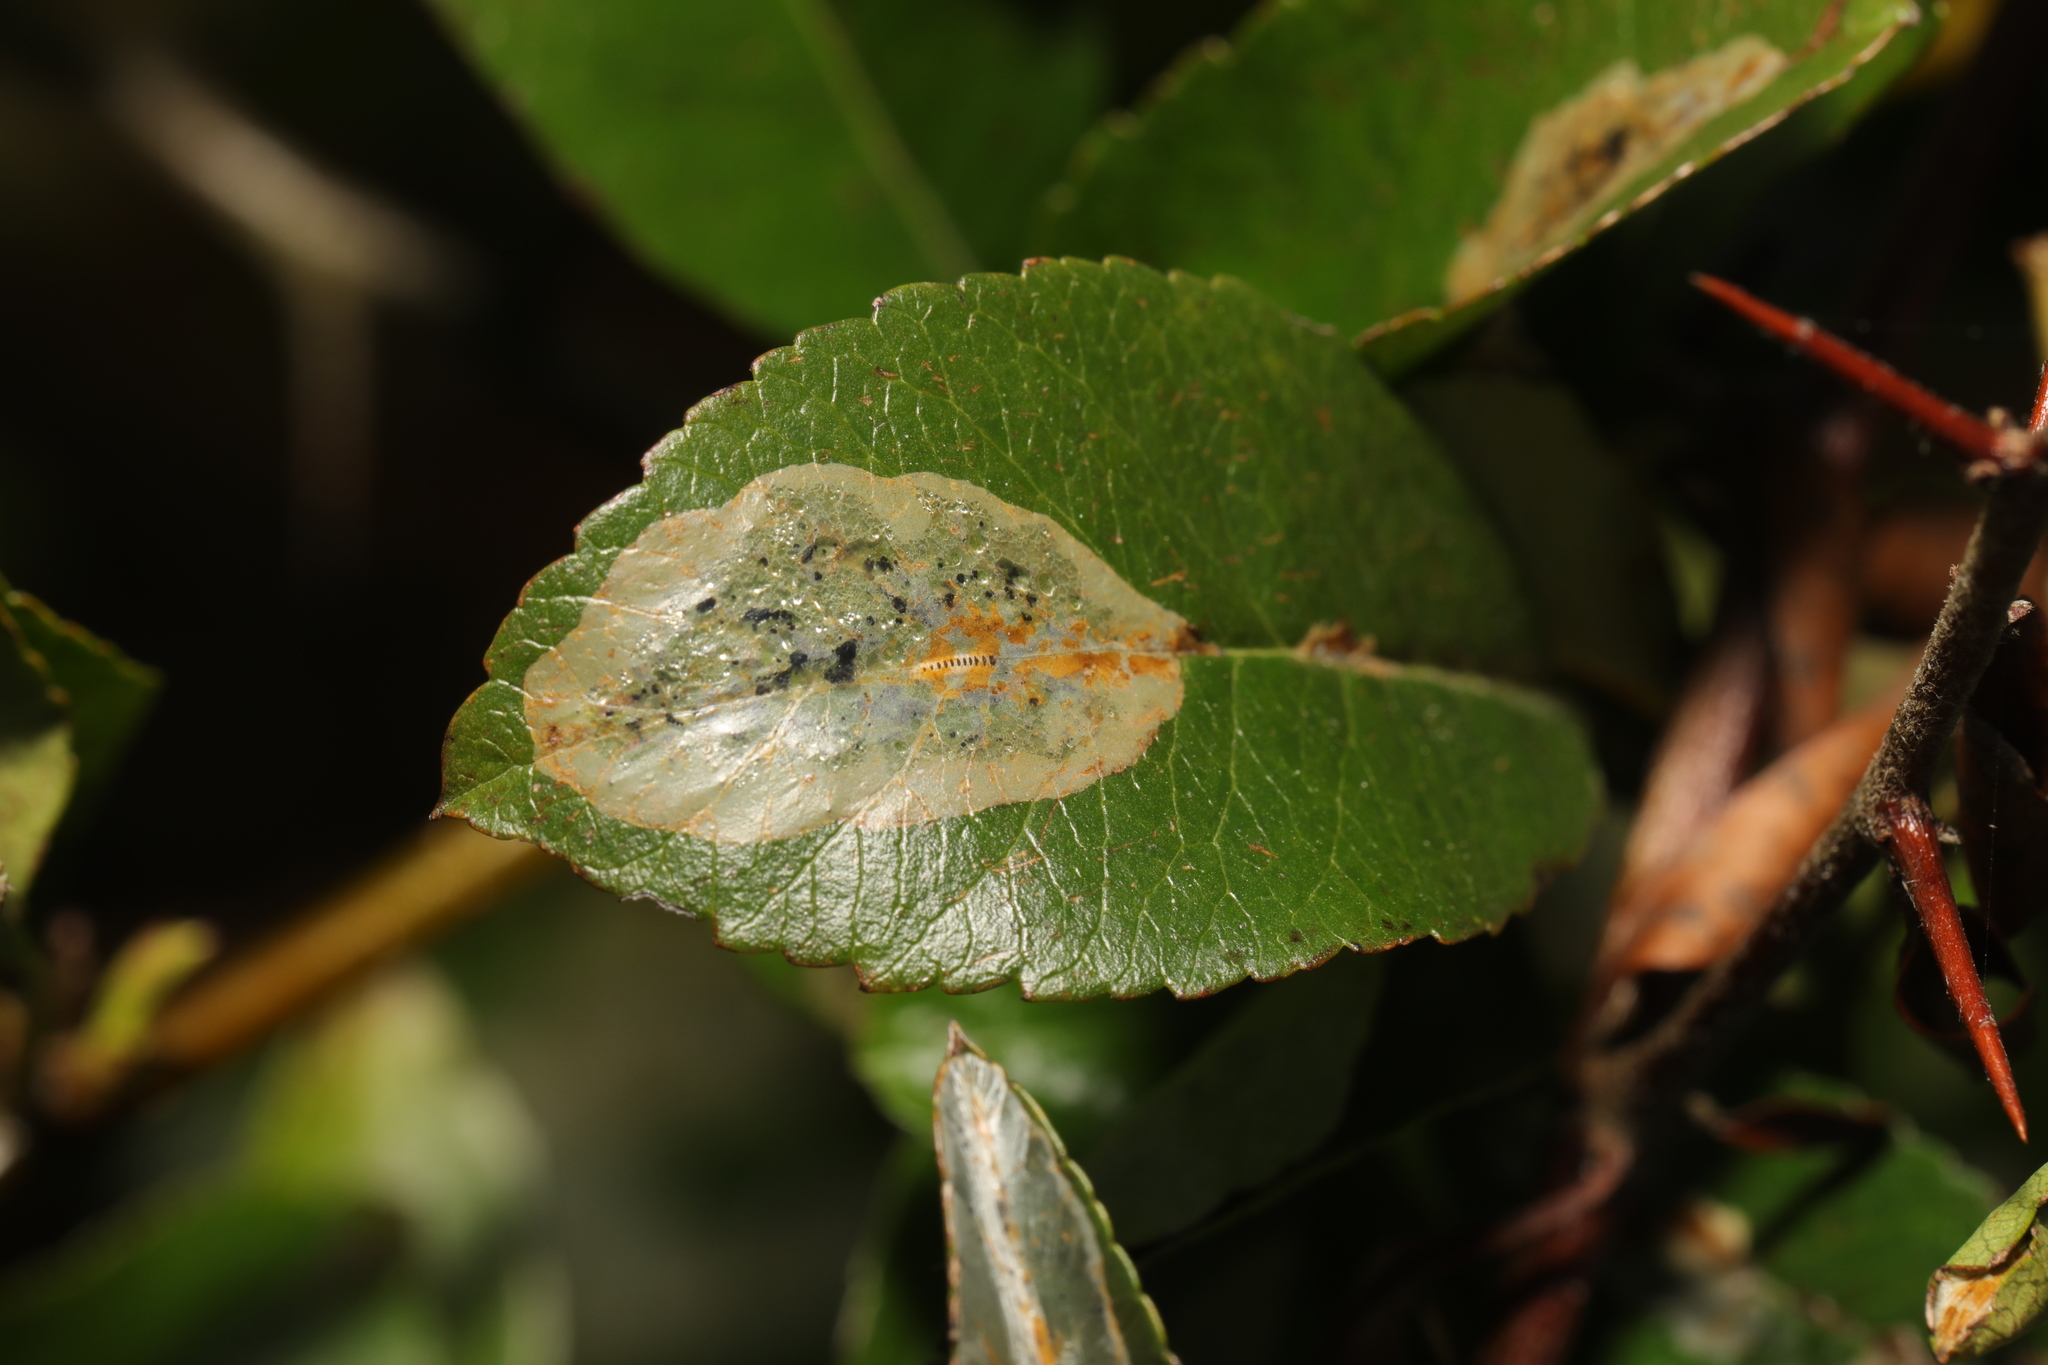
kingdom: Animalia
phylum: Arthropoda
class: Insecta
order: Lepidoptera
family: Gracillariidae
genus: Phyllonorycter
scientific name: Phyllonorycter leucographella
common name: Firethorn leaf-miner
